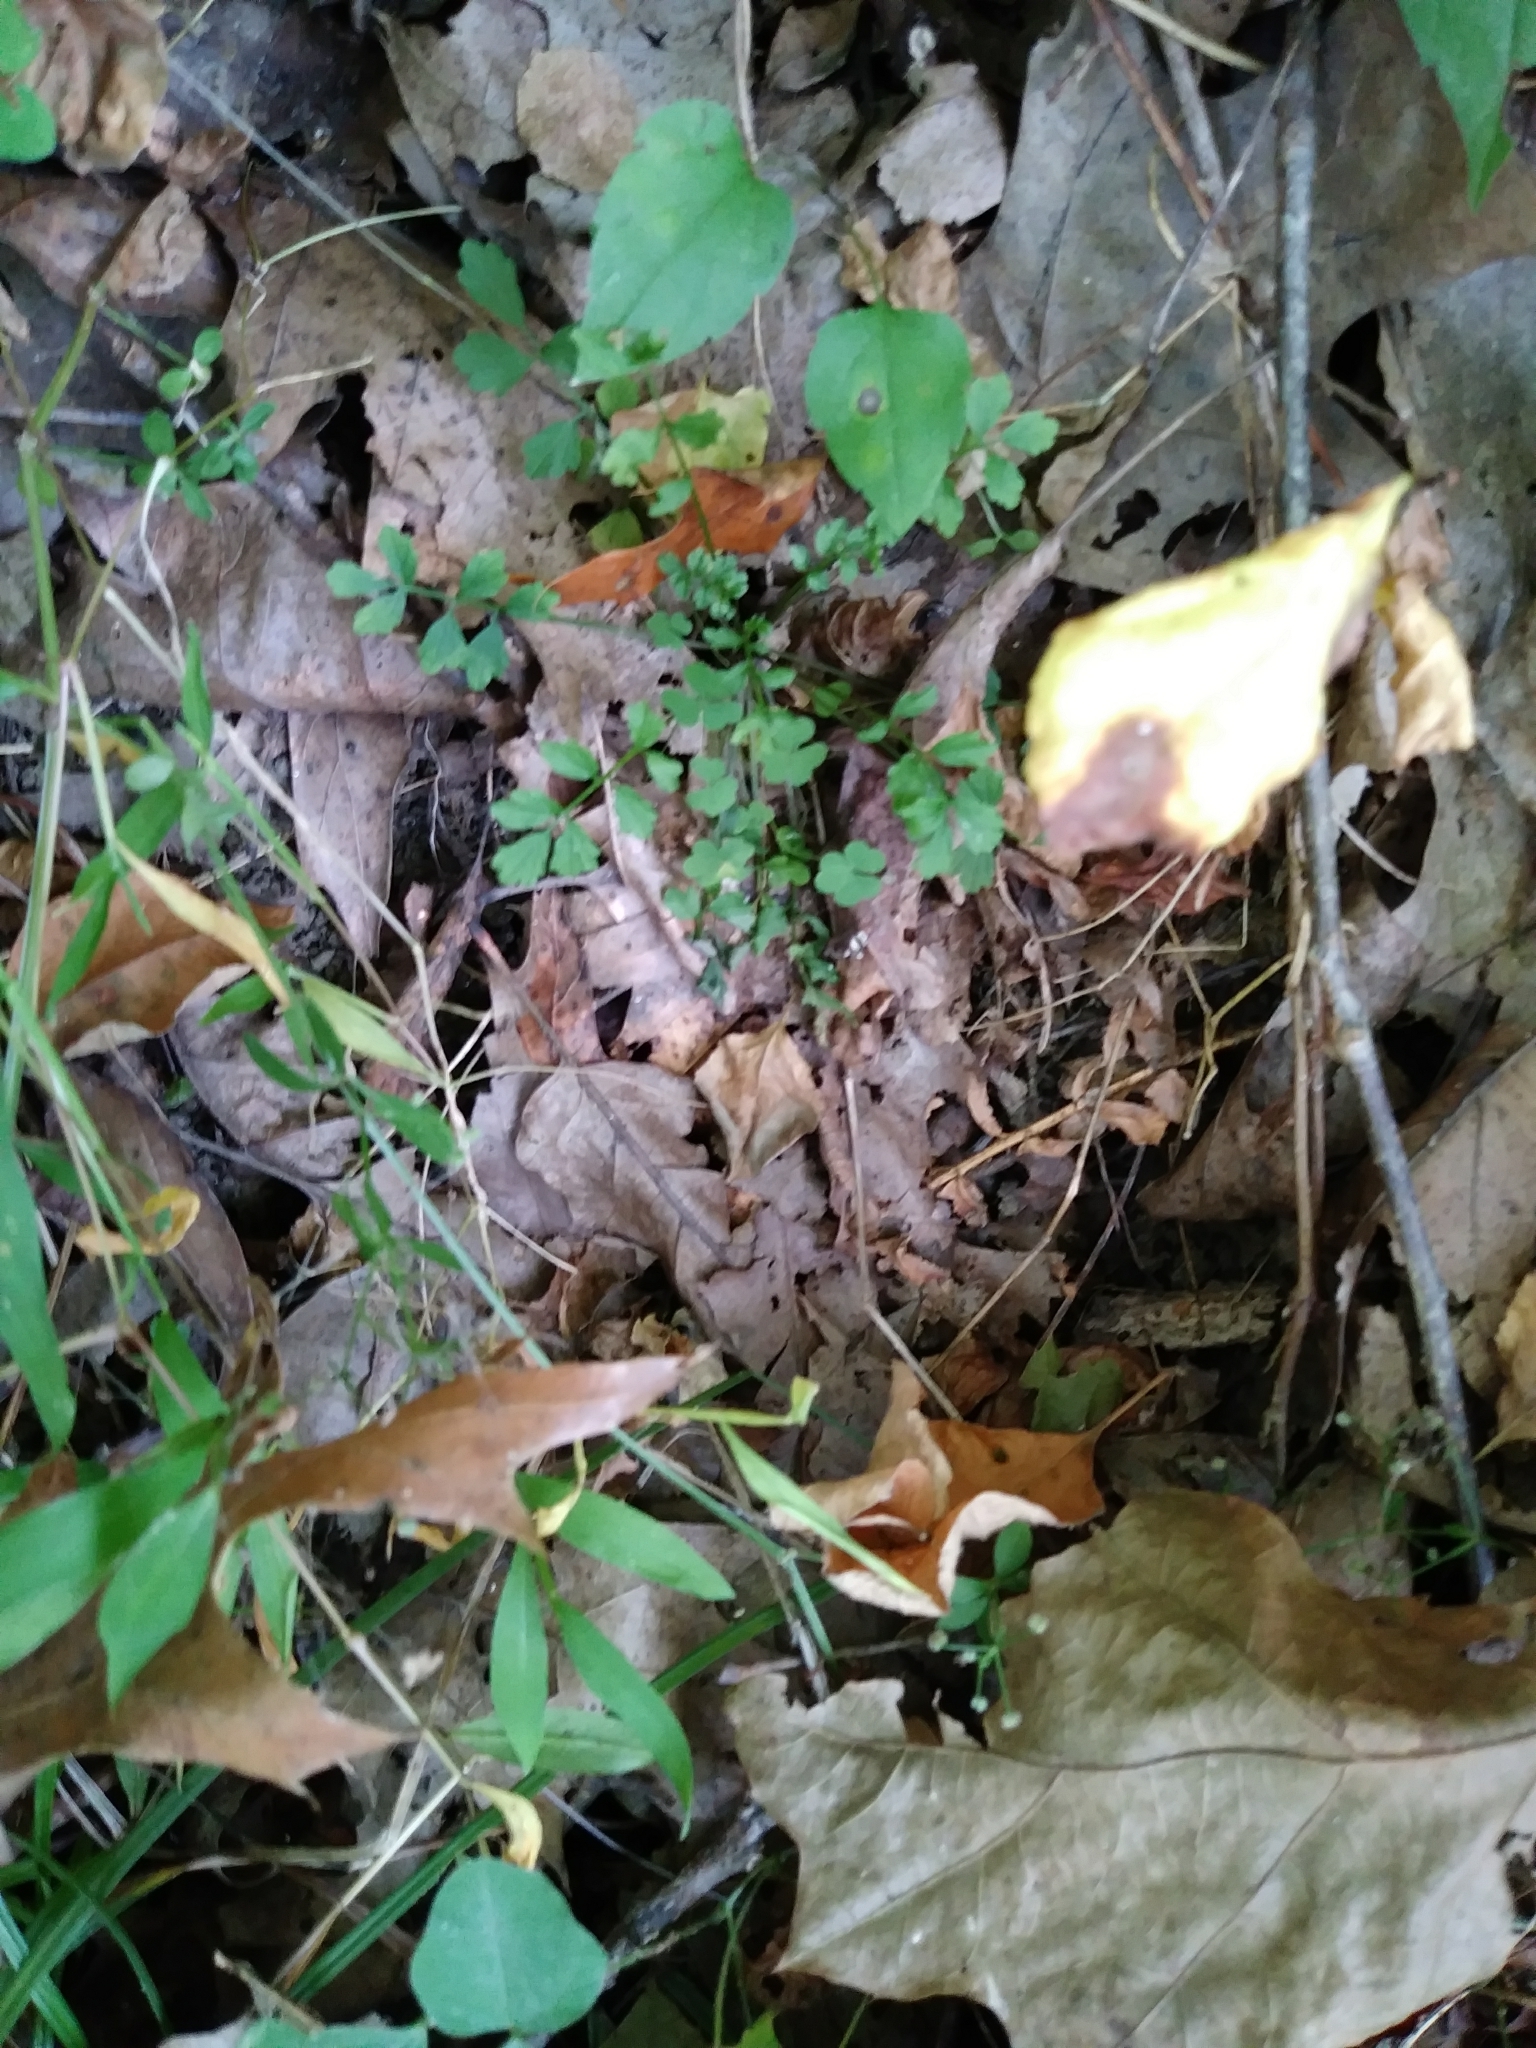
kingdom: Plantae
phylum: Tracheophyta
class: Magnoliopsida
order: Brassicales
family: Brassicaceae
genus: Cardamine
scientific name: Cardamine impatiens
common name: Narrow-leaved bitter-cress
